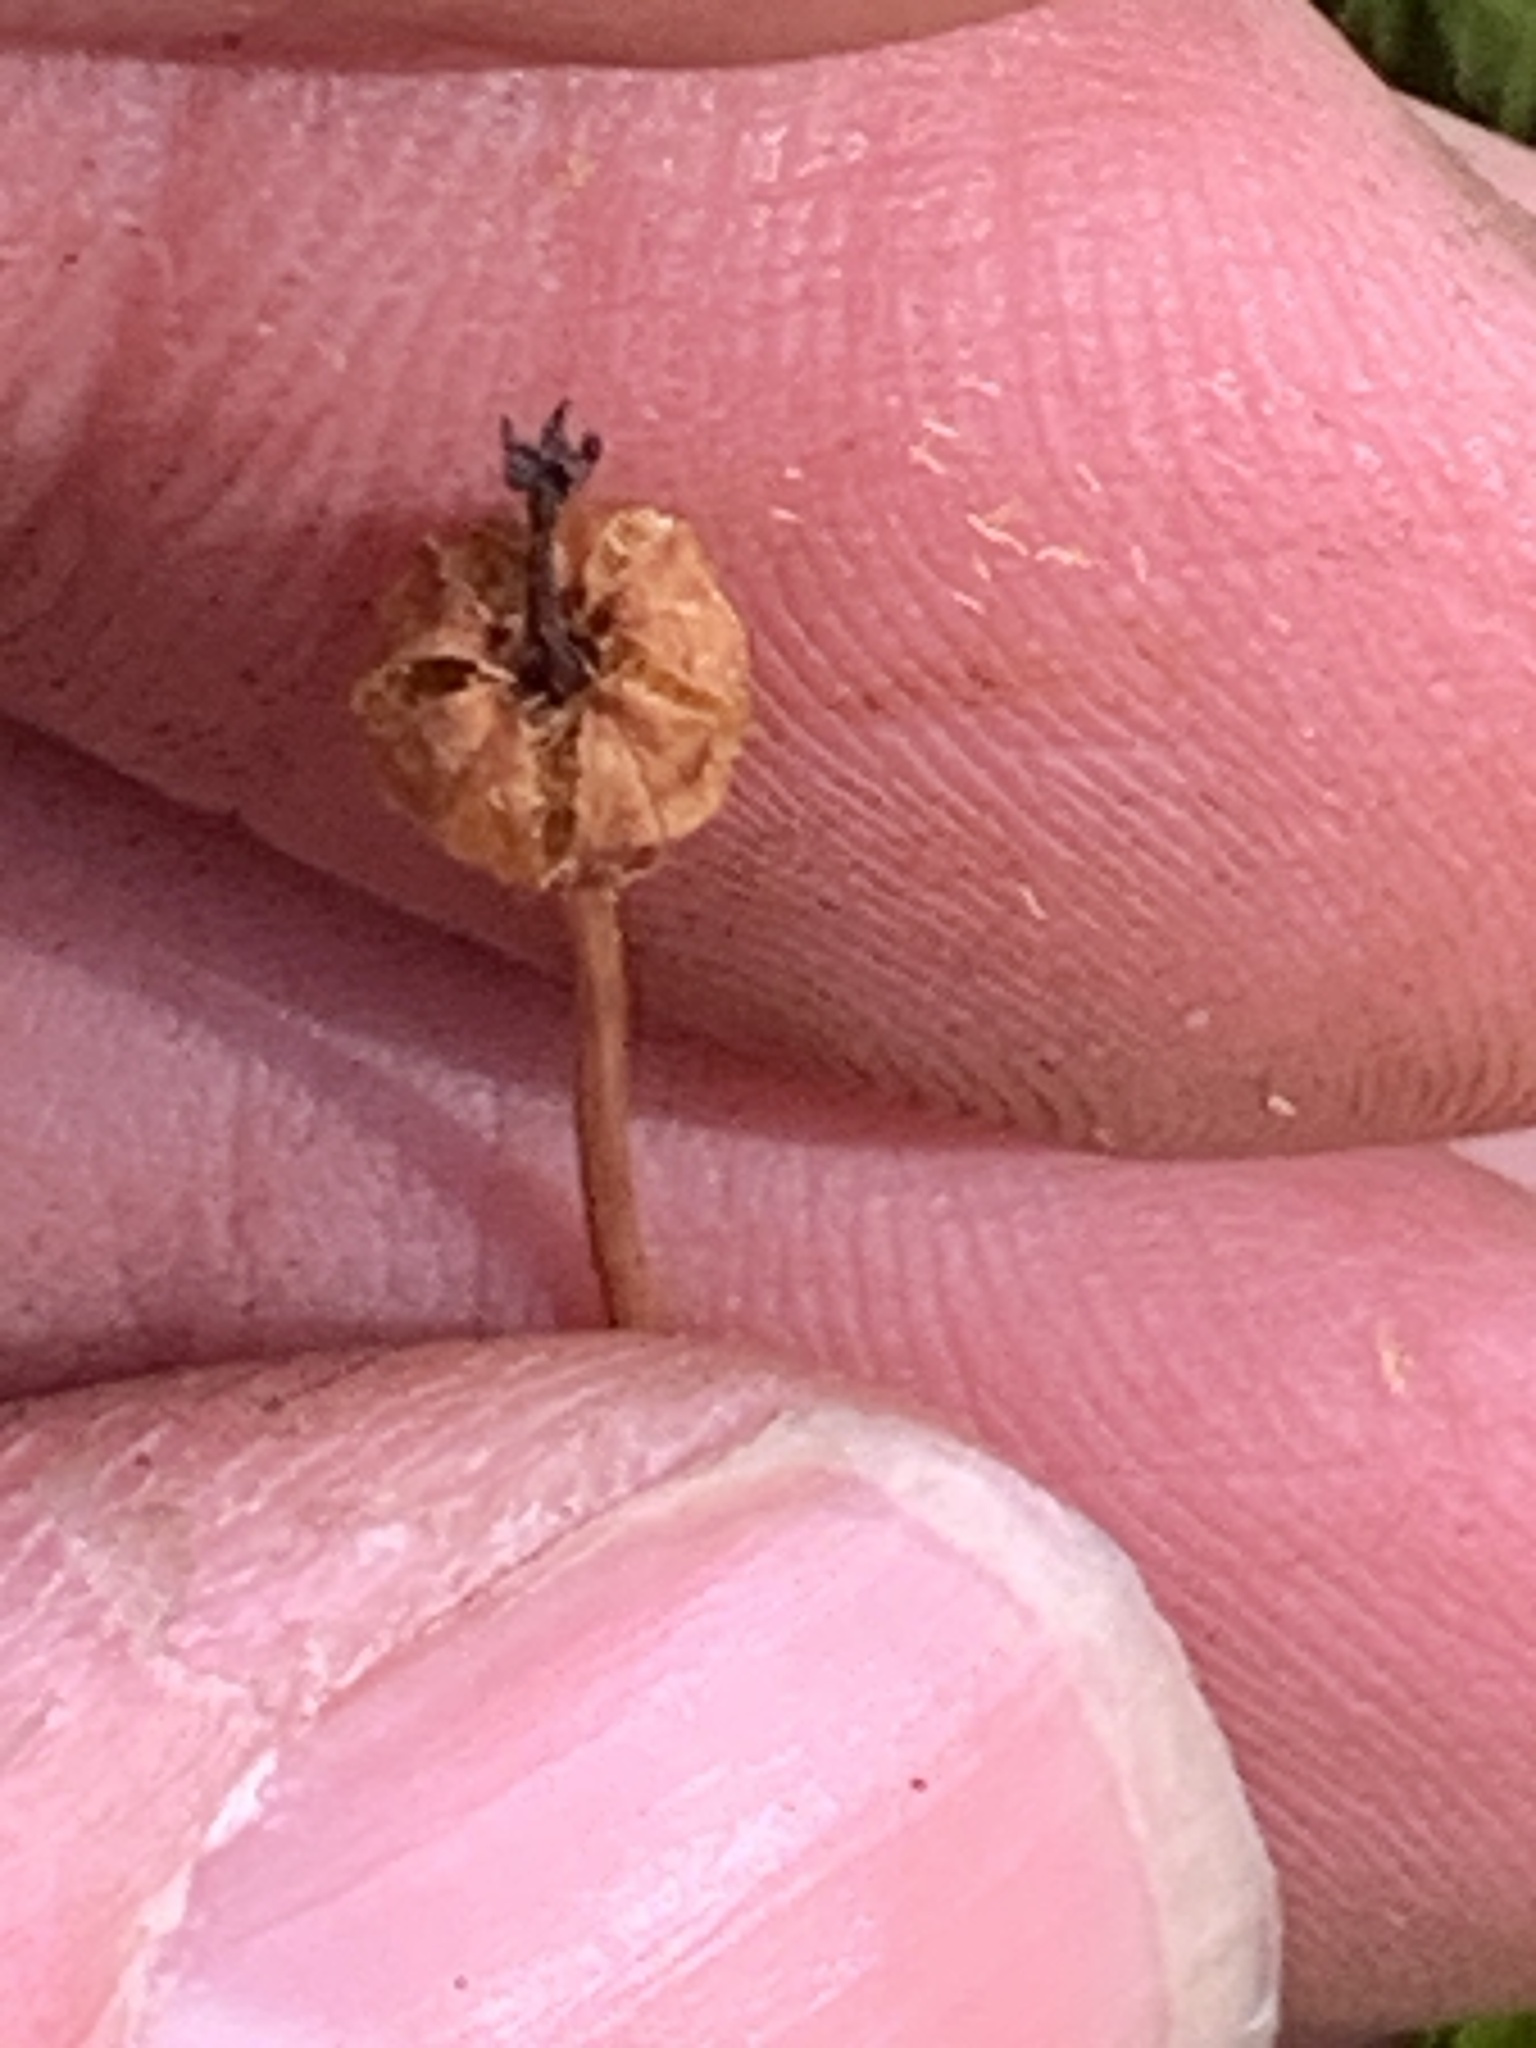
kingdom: Plantae
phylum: Tracheophyta
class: Magnoliopsida
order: Ericales
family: Ericaceae
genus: Moneses
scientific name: Moneses uniflora
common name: One-flowered wintergreen
